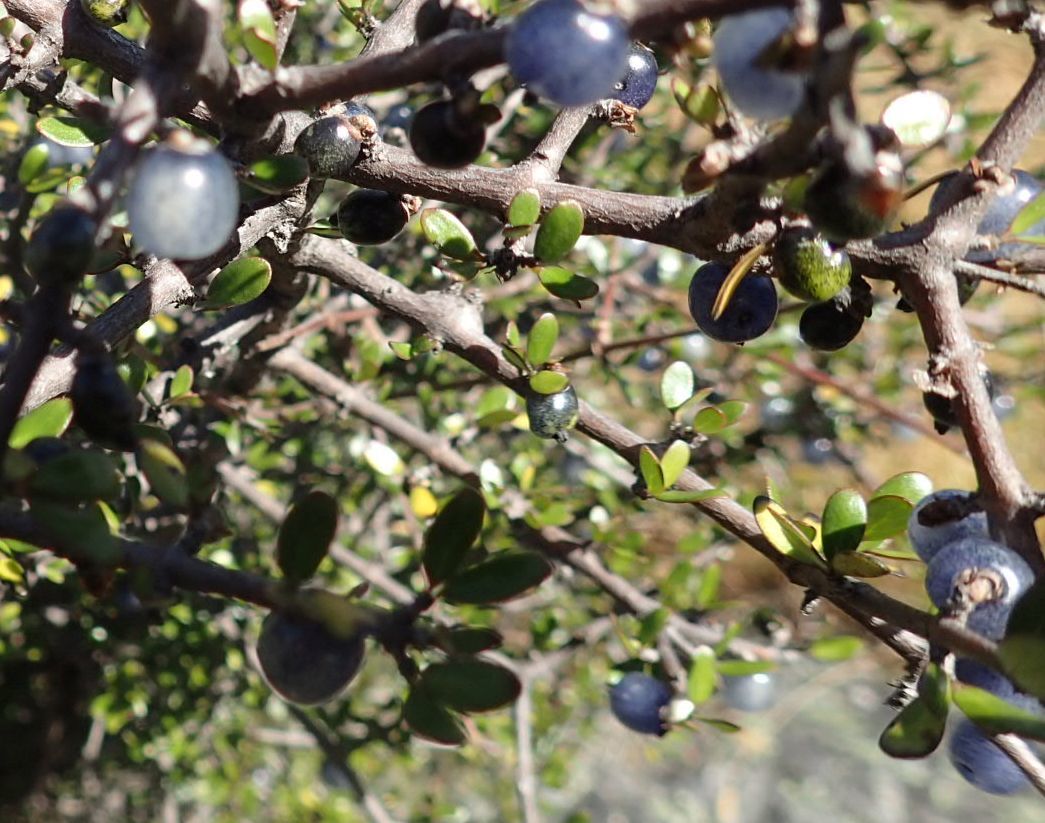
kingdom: Plantae
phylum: Tracheophyta
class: Magnoliopsida
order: Gentianales
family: Rubiaceae
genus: Coprosma
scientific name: Coprosma propinqua
